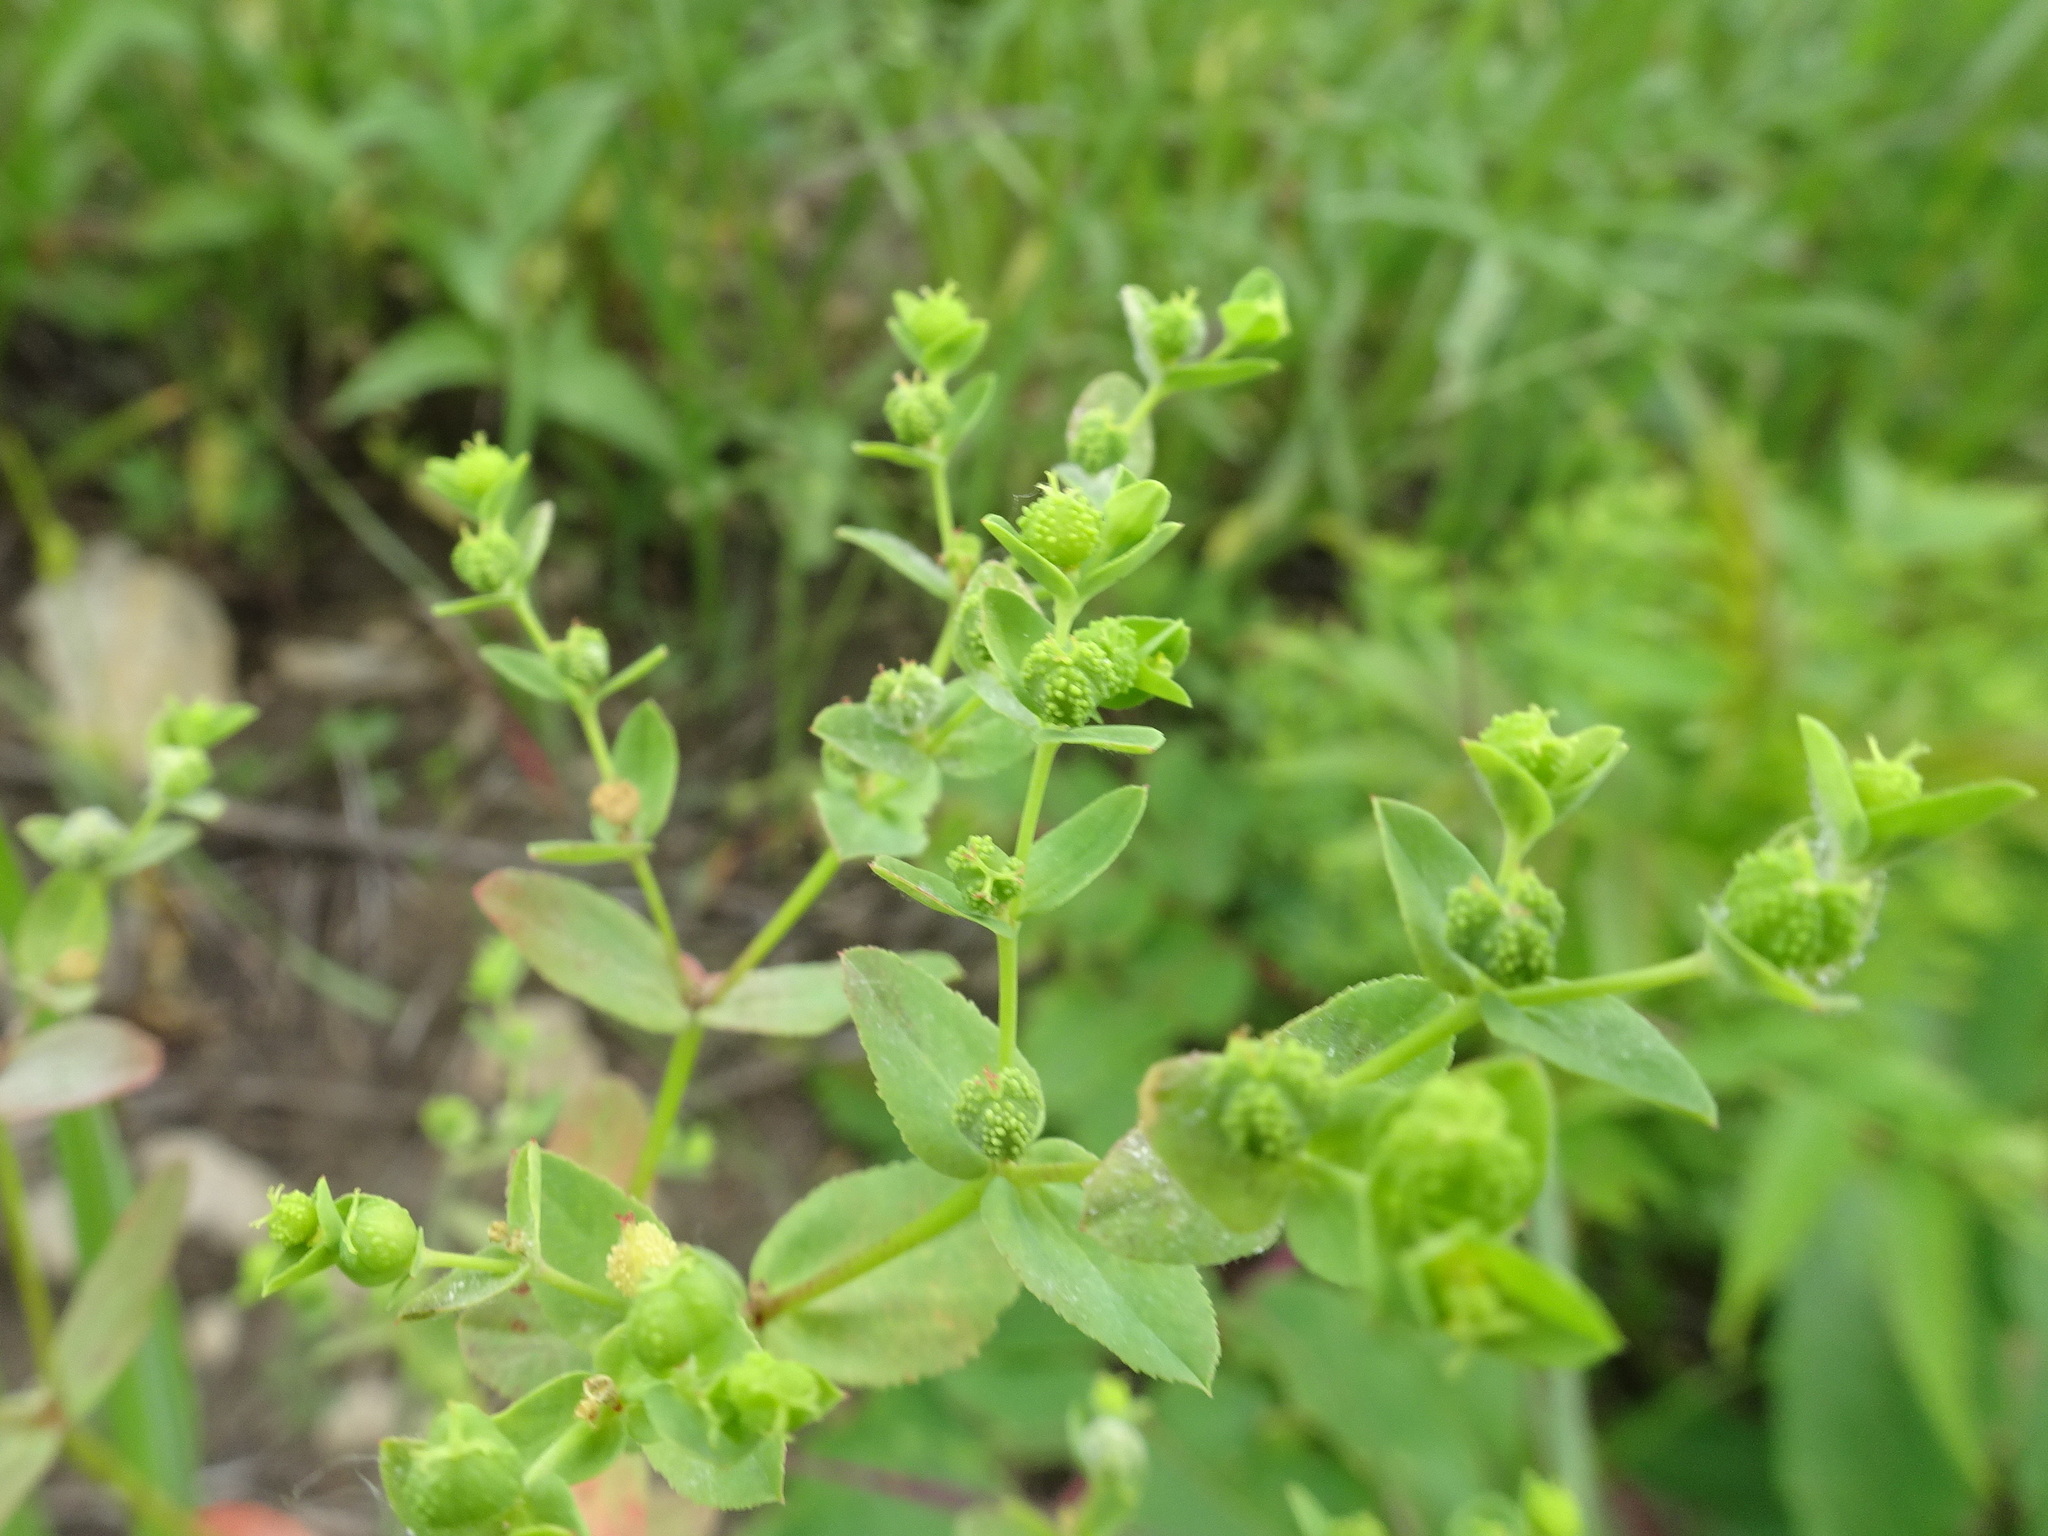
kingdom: Plantae
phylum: Tracheophyta
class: Magnoliopsida
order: Malpighiales
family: Euphorbiaceae
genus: Euphorbia
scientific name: Euphorbia spathulata
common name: Blunt spurge
